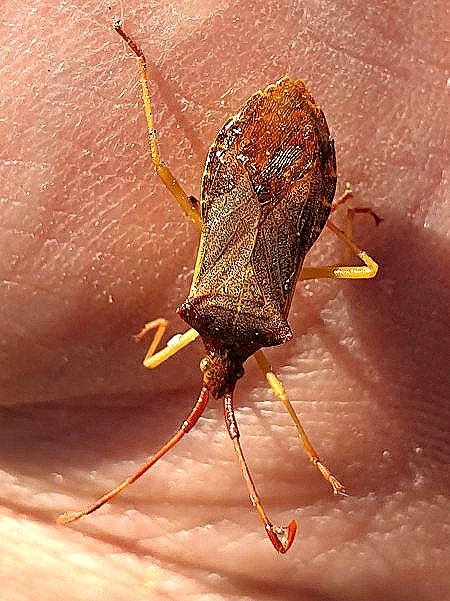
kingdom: Animalia
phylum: Arthropoda
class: Insecta
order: Hemiptera
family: Coreidae
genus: Gonocerus
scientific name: Gonocerus acuteangulatus
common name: Box bug
